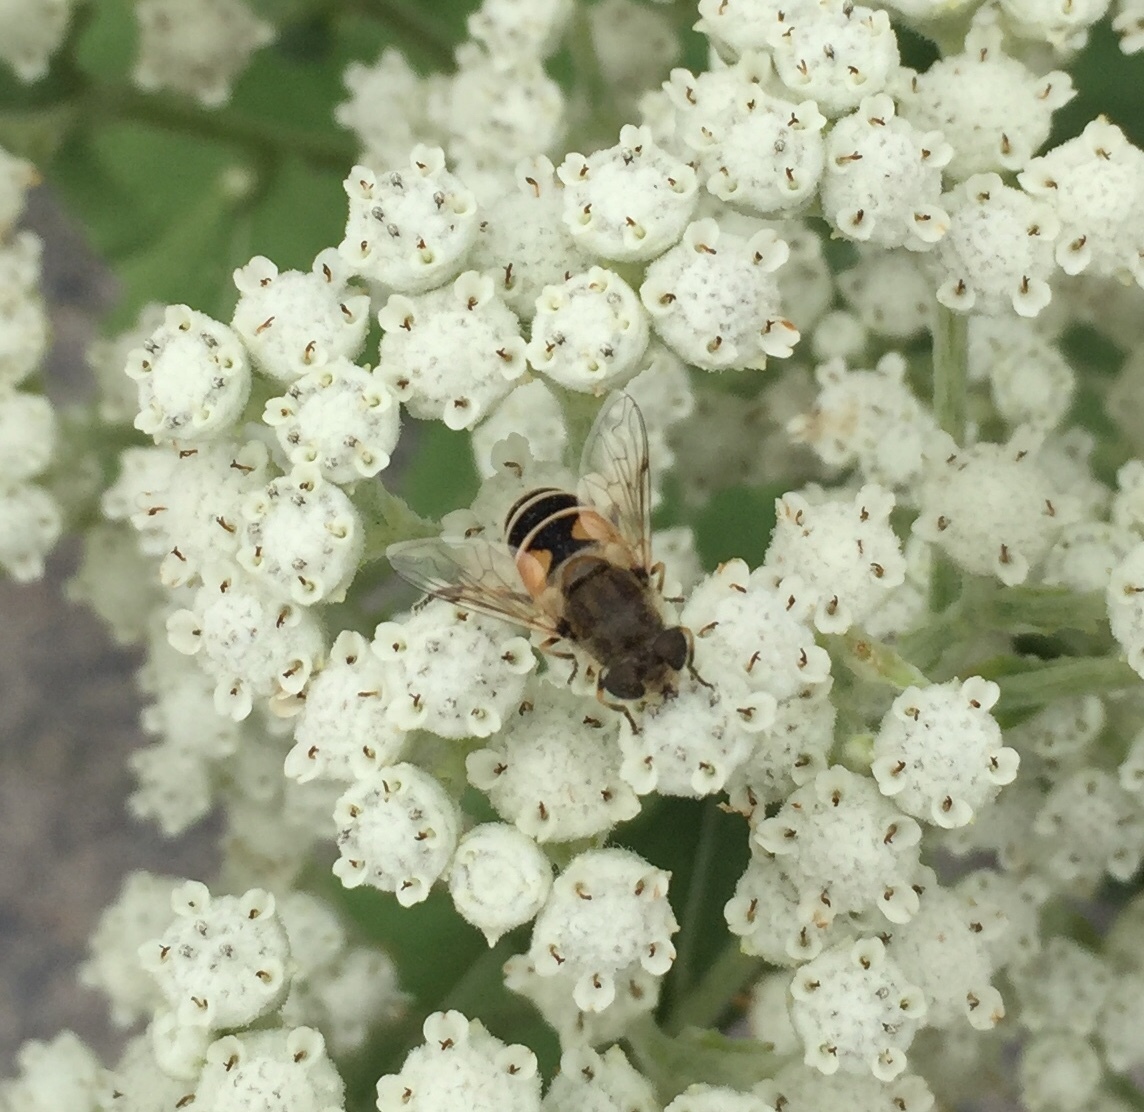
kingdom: Animalia
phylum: Arthropoda
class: Insecta
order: Diptera
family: Syrphidae
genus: Eristalis
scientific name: Eristalis arbustorum
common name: Hover fly
